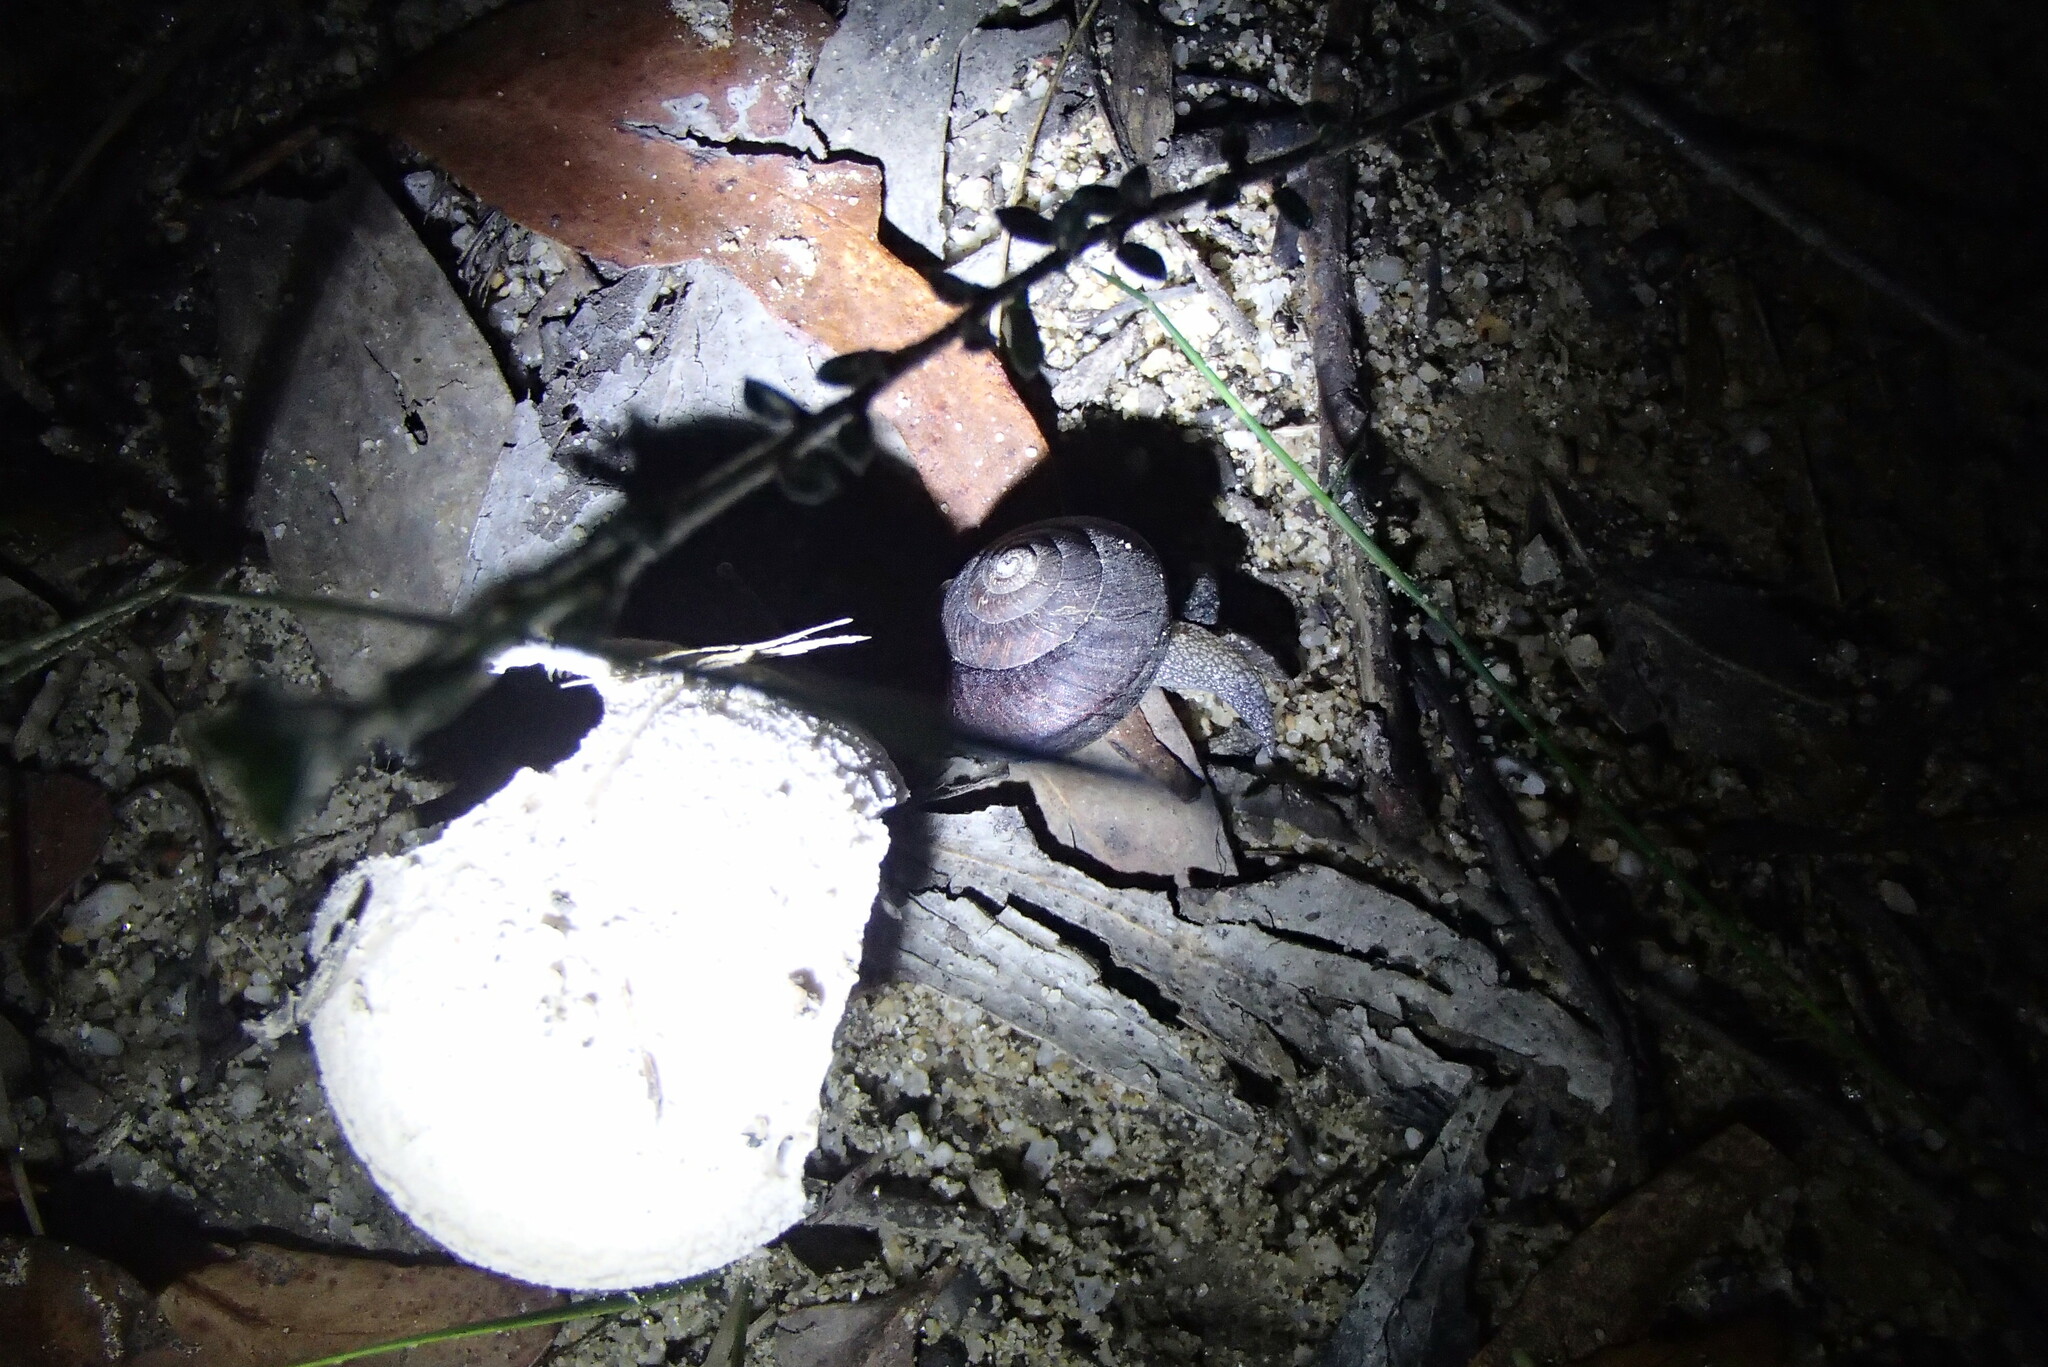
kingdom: Animalia
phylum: Mollusca
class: Gastropoda
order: Stylommatophora
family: Camaenidae
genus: Pommerhelix
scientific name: Pommerhelix monacha
